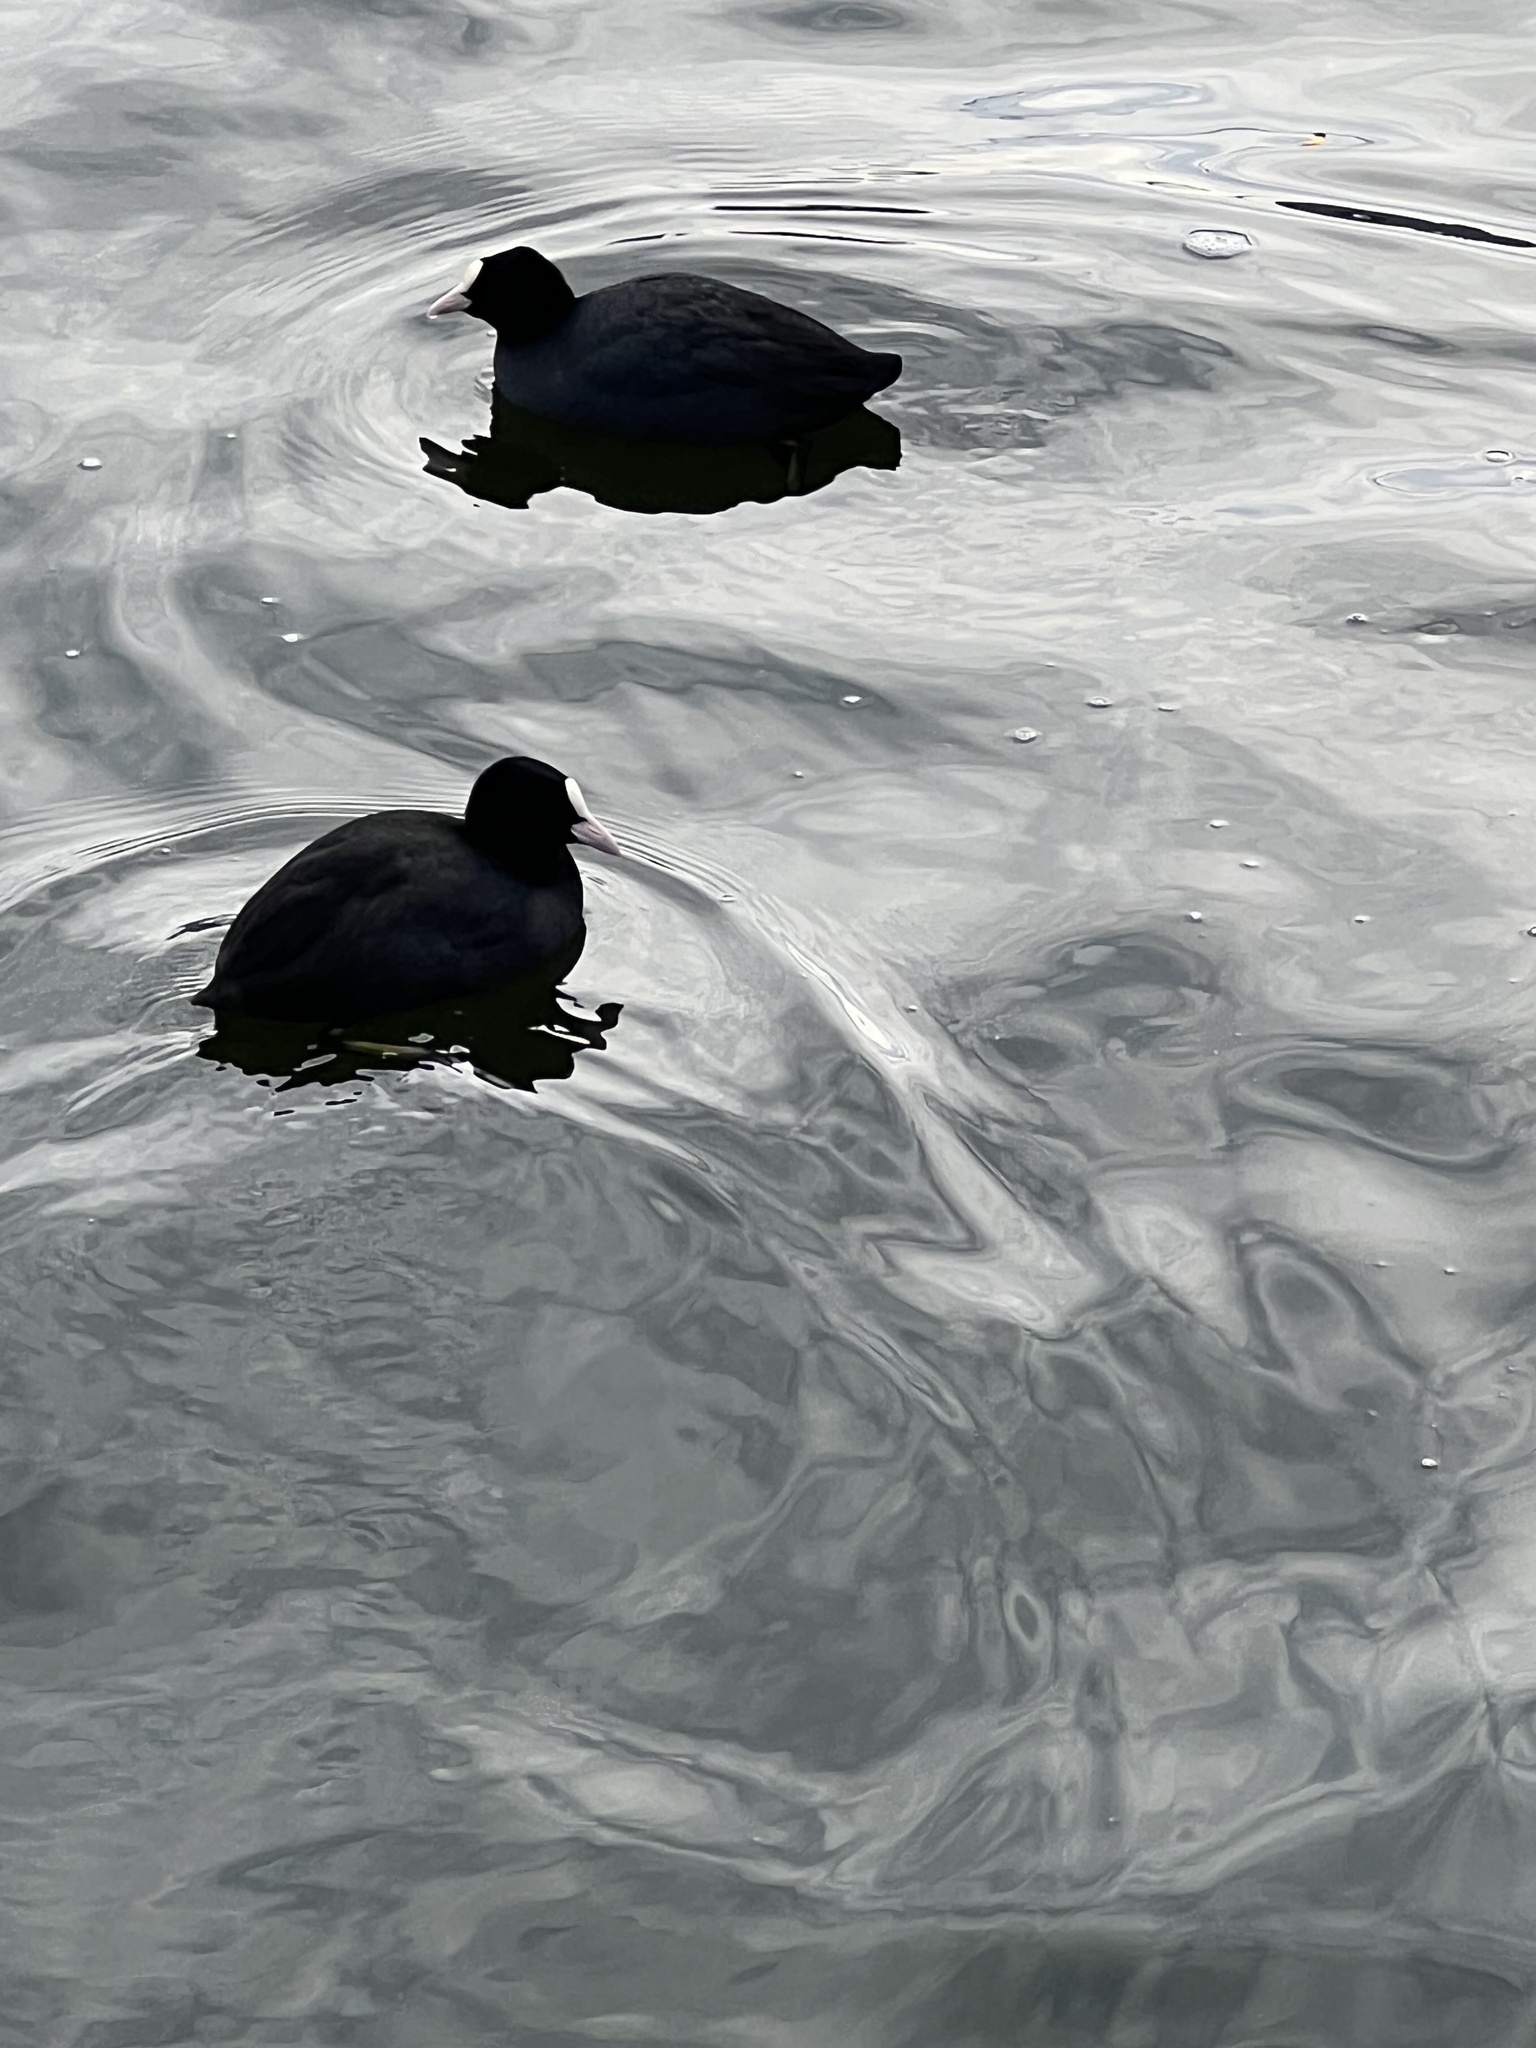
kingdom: Animalia
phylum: Chordata
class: Aves
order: Gruiformes
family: Rallidae
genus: Fulica
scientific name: Fulica atra
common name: Eurasian coot
